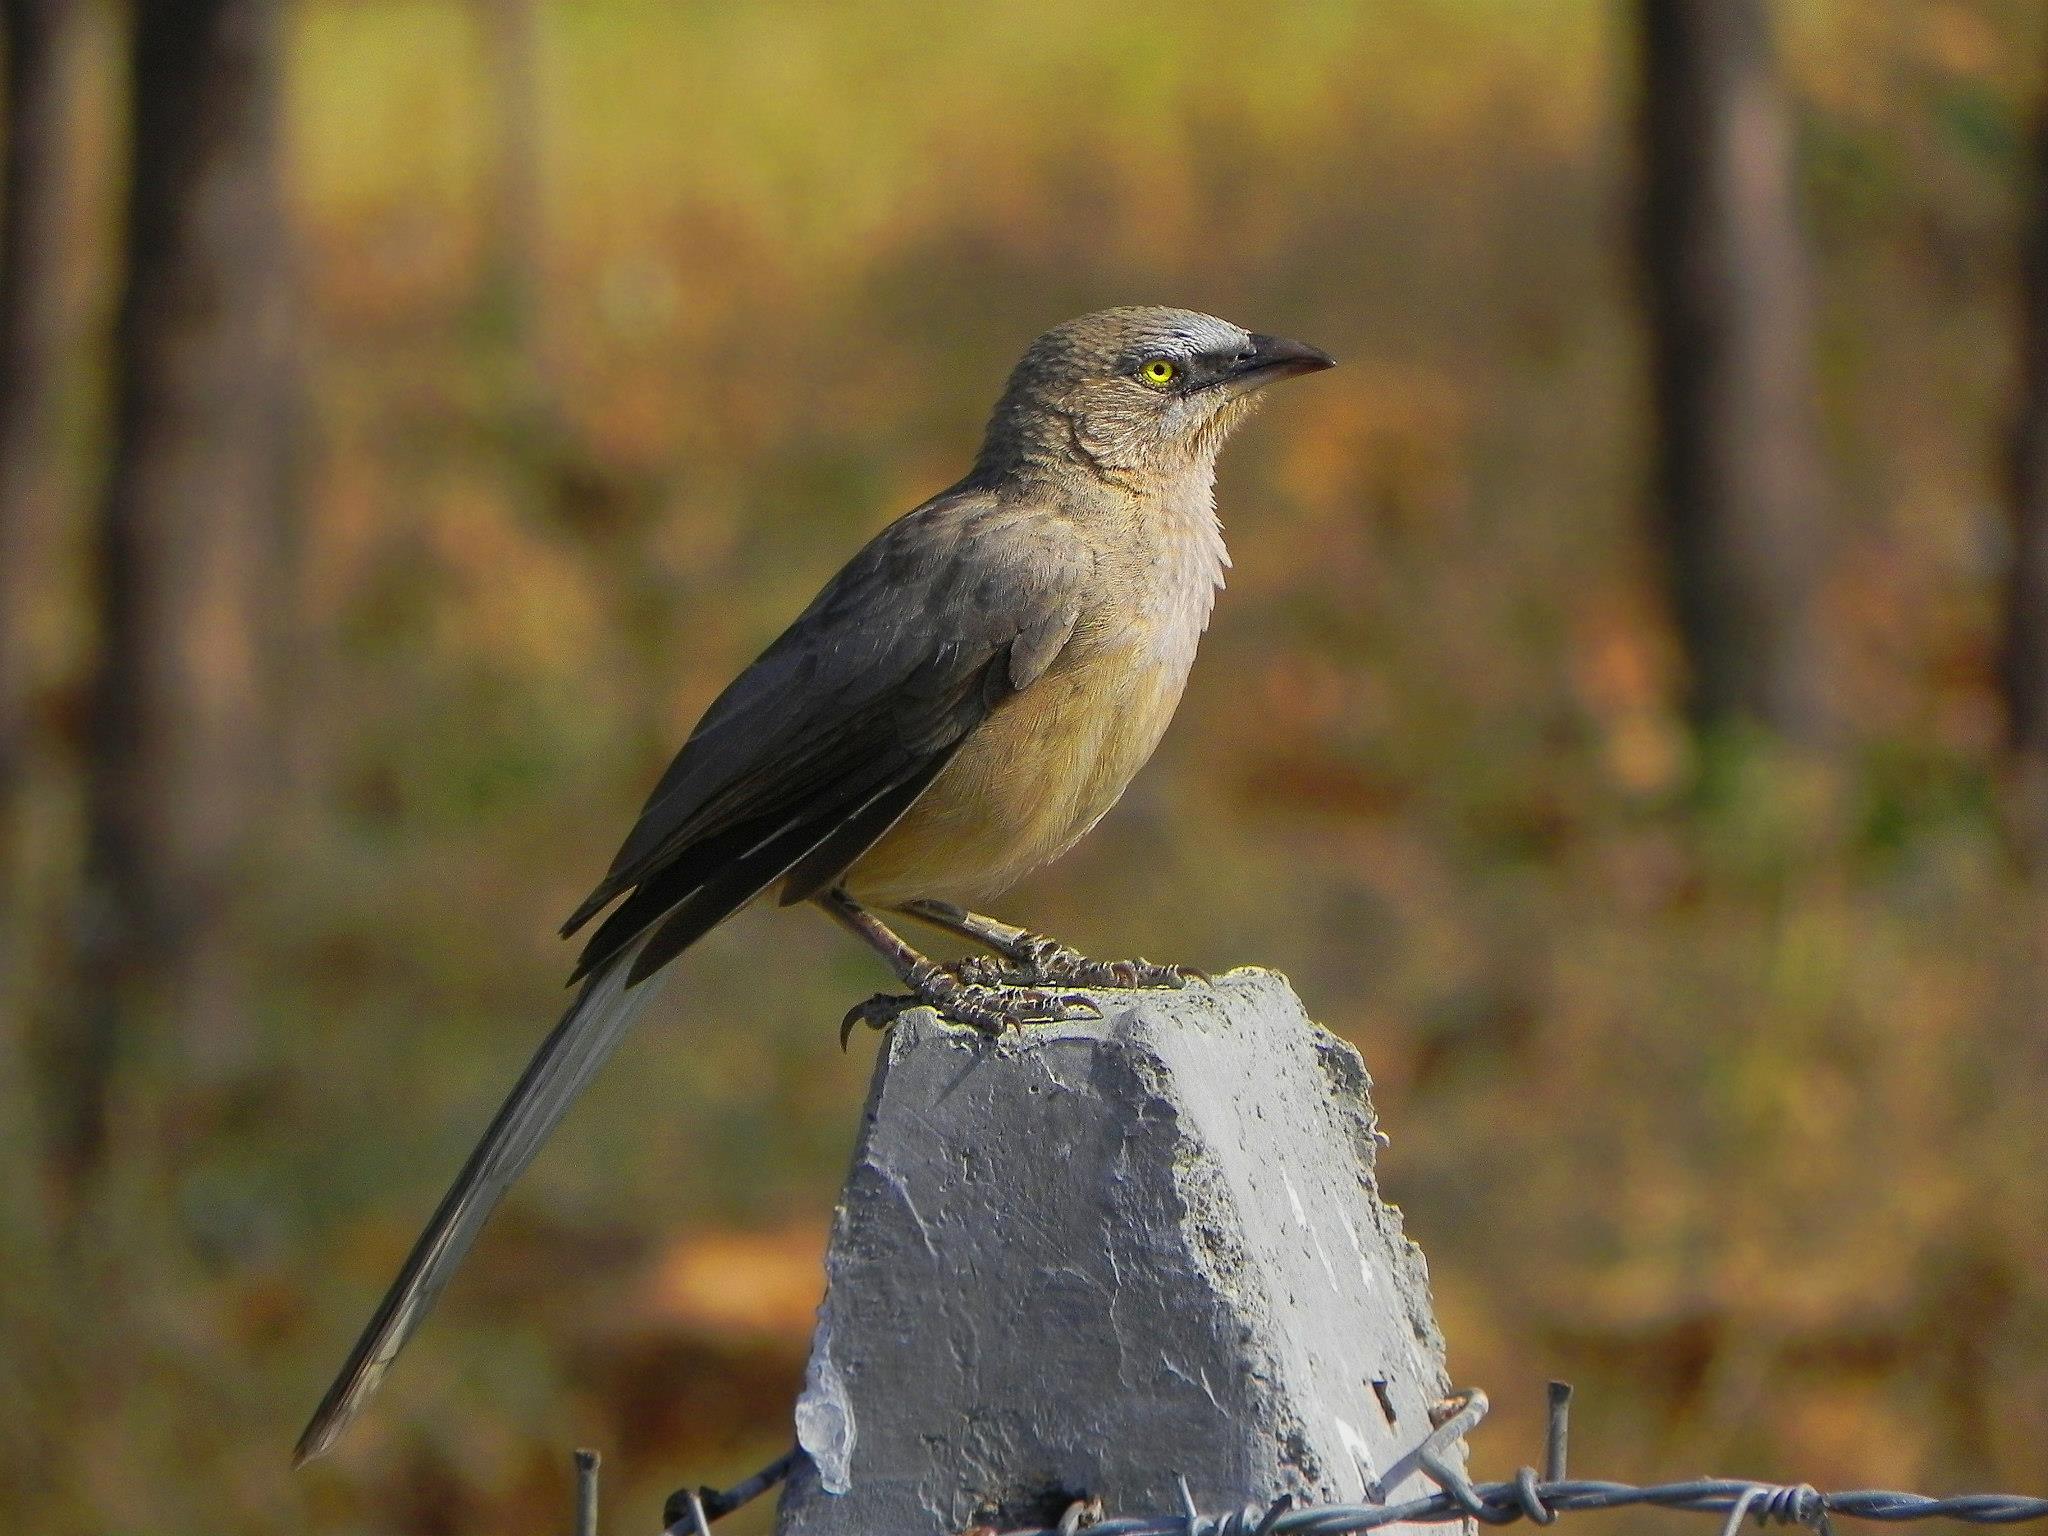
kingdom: Animalia
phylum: Chordata
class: Aves
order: Passeriformes
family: Leiothrichidae
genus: Turdoides
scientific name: Turdoides malcolmi
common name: Large grey babbler
